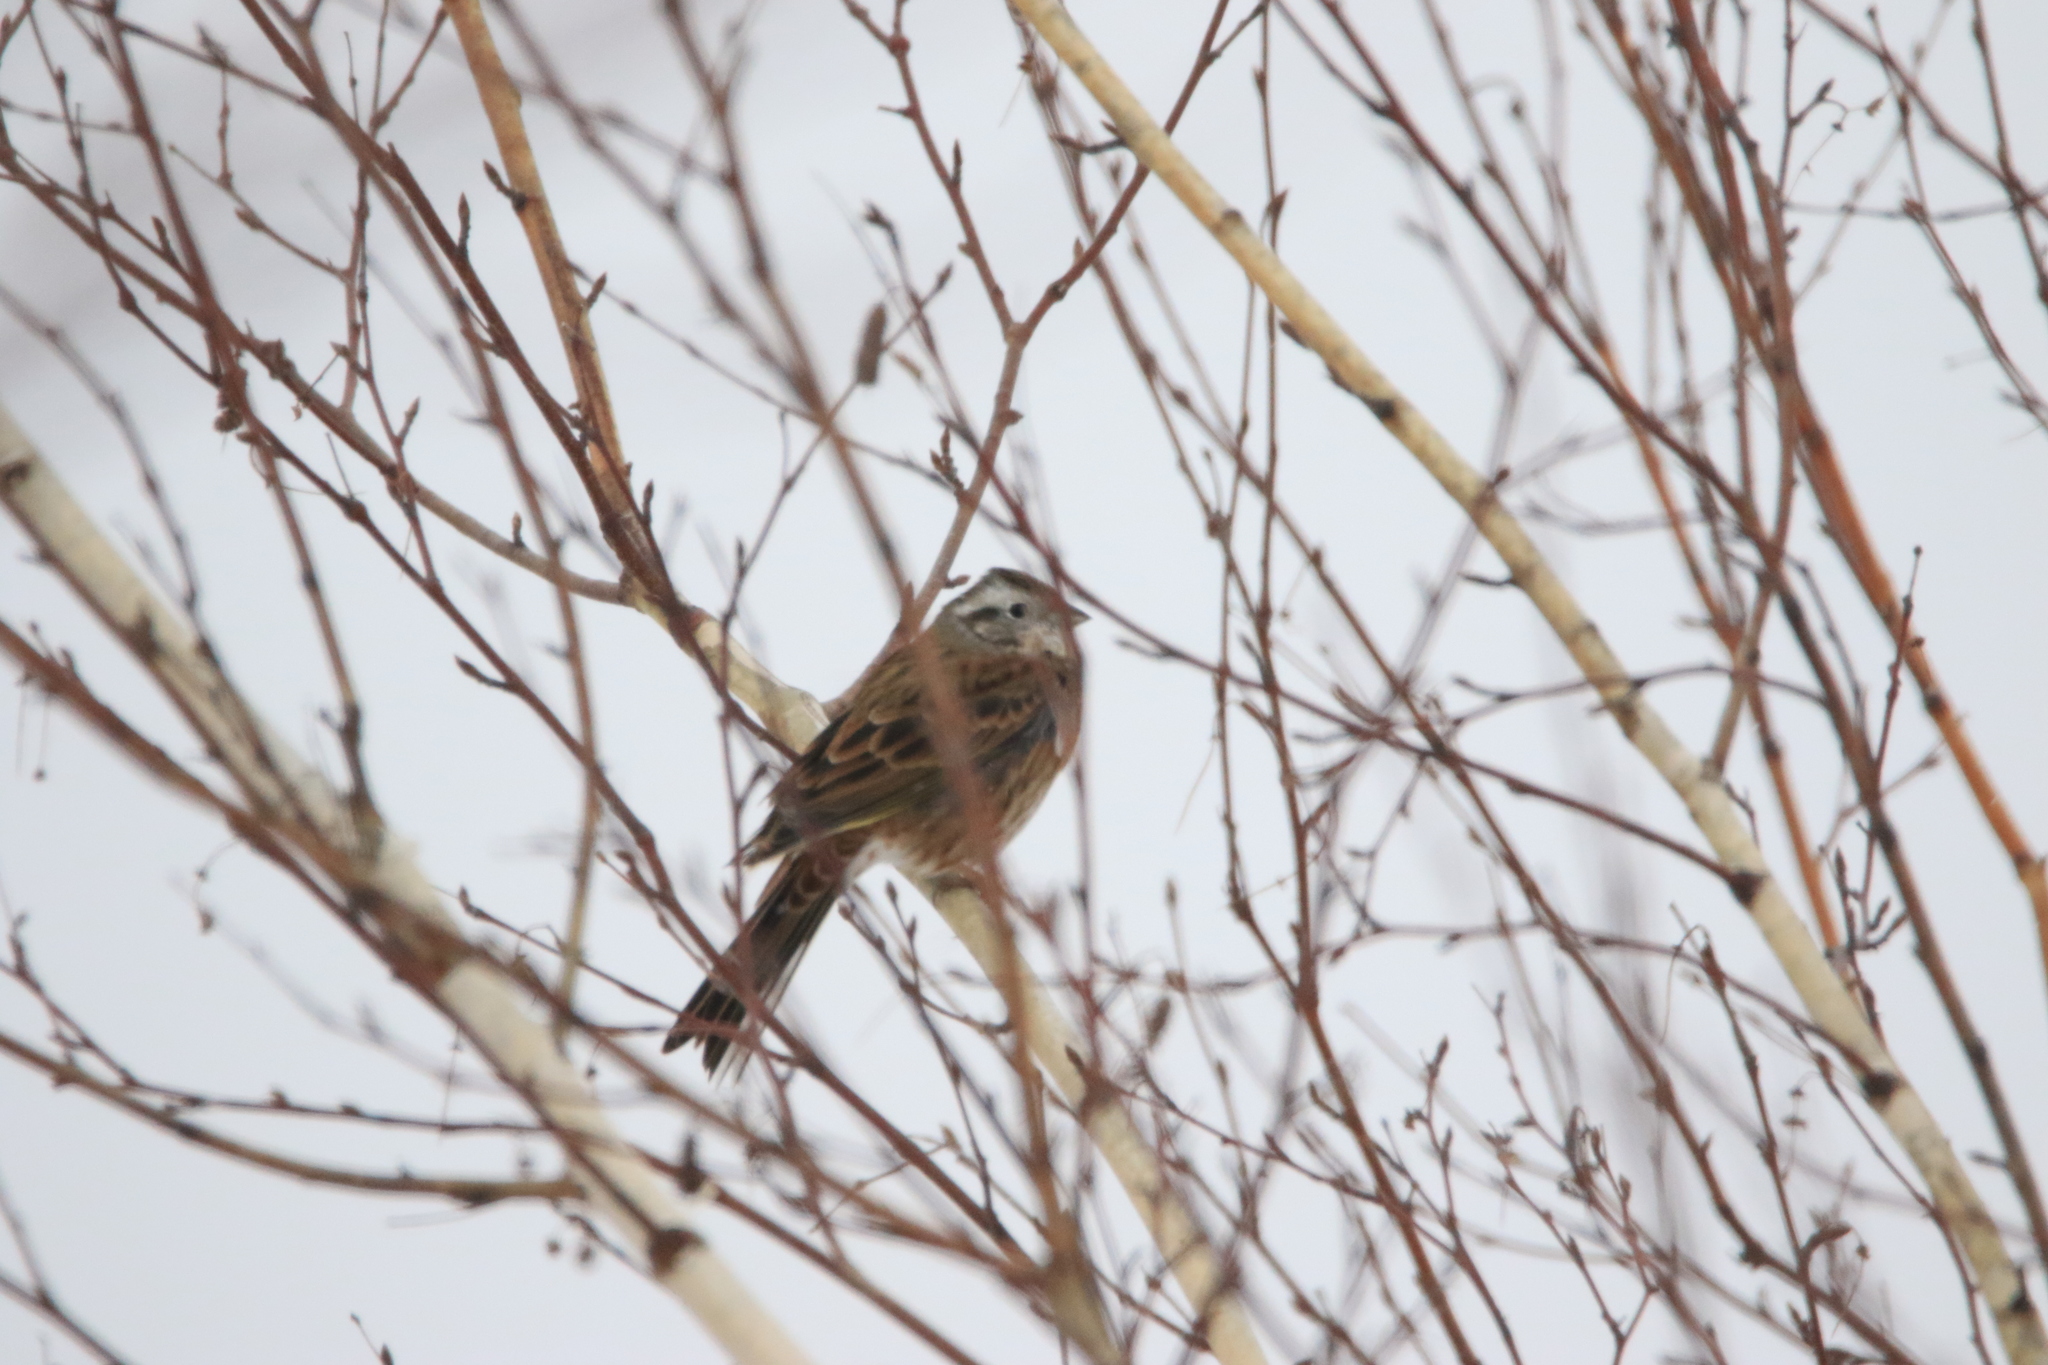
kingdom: Animalia
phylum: Chordata
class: Aves
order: Passeriformes
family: Emberizidae
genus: Emberiza
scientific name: Emberiza
